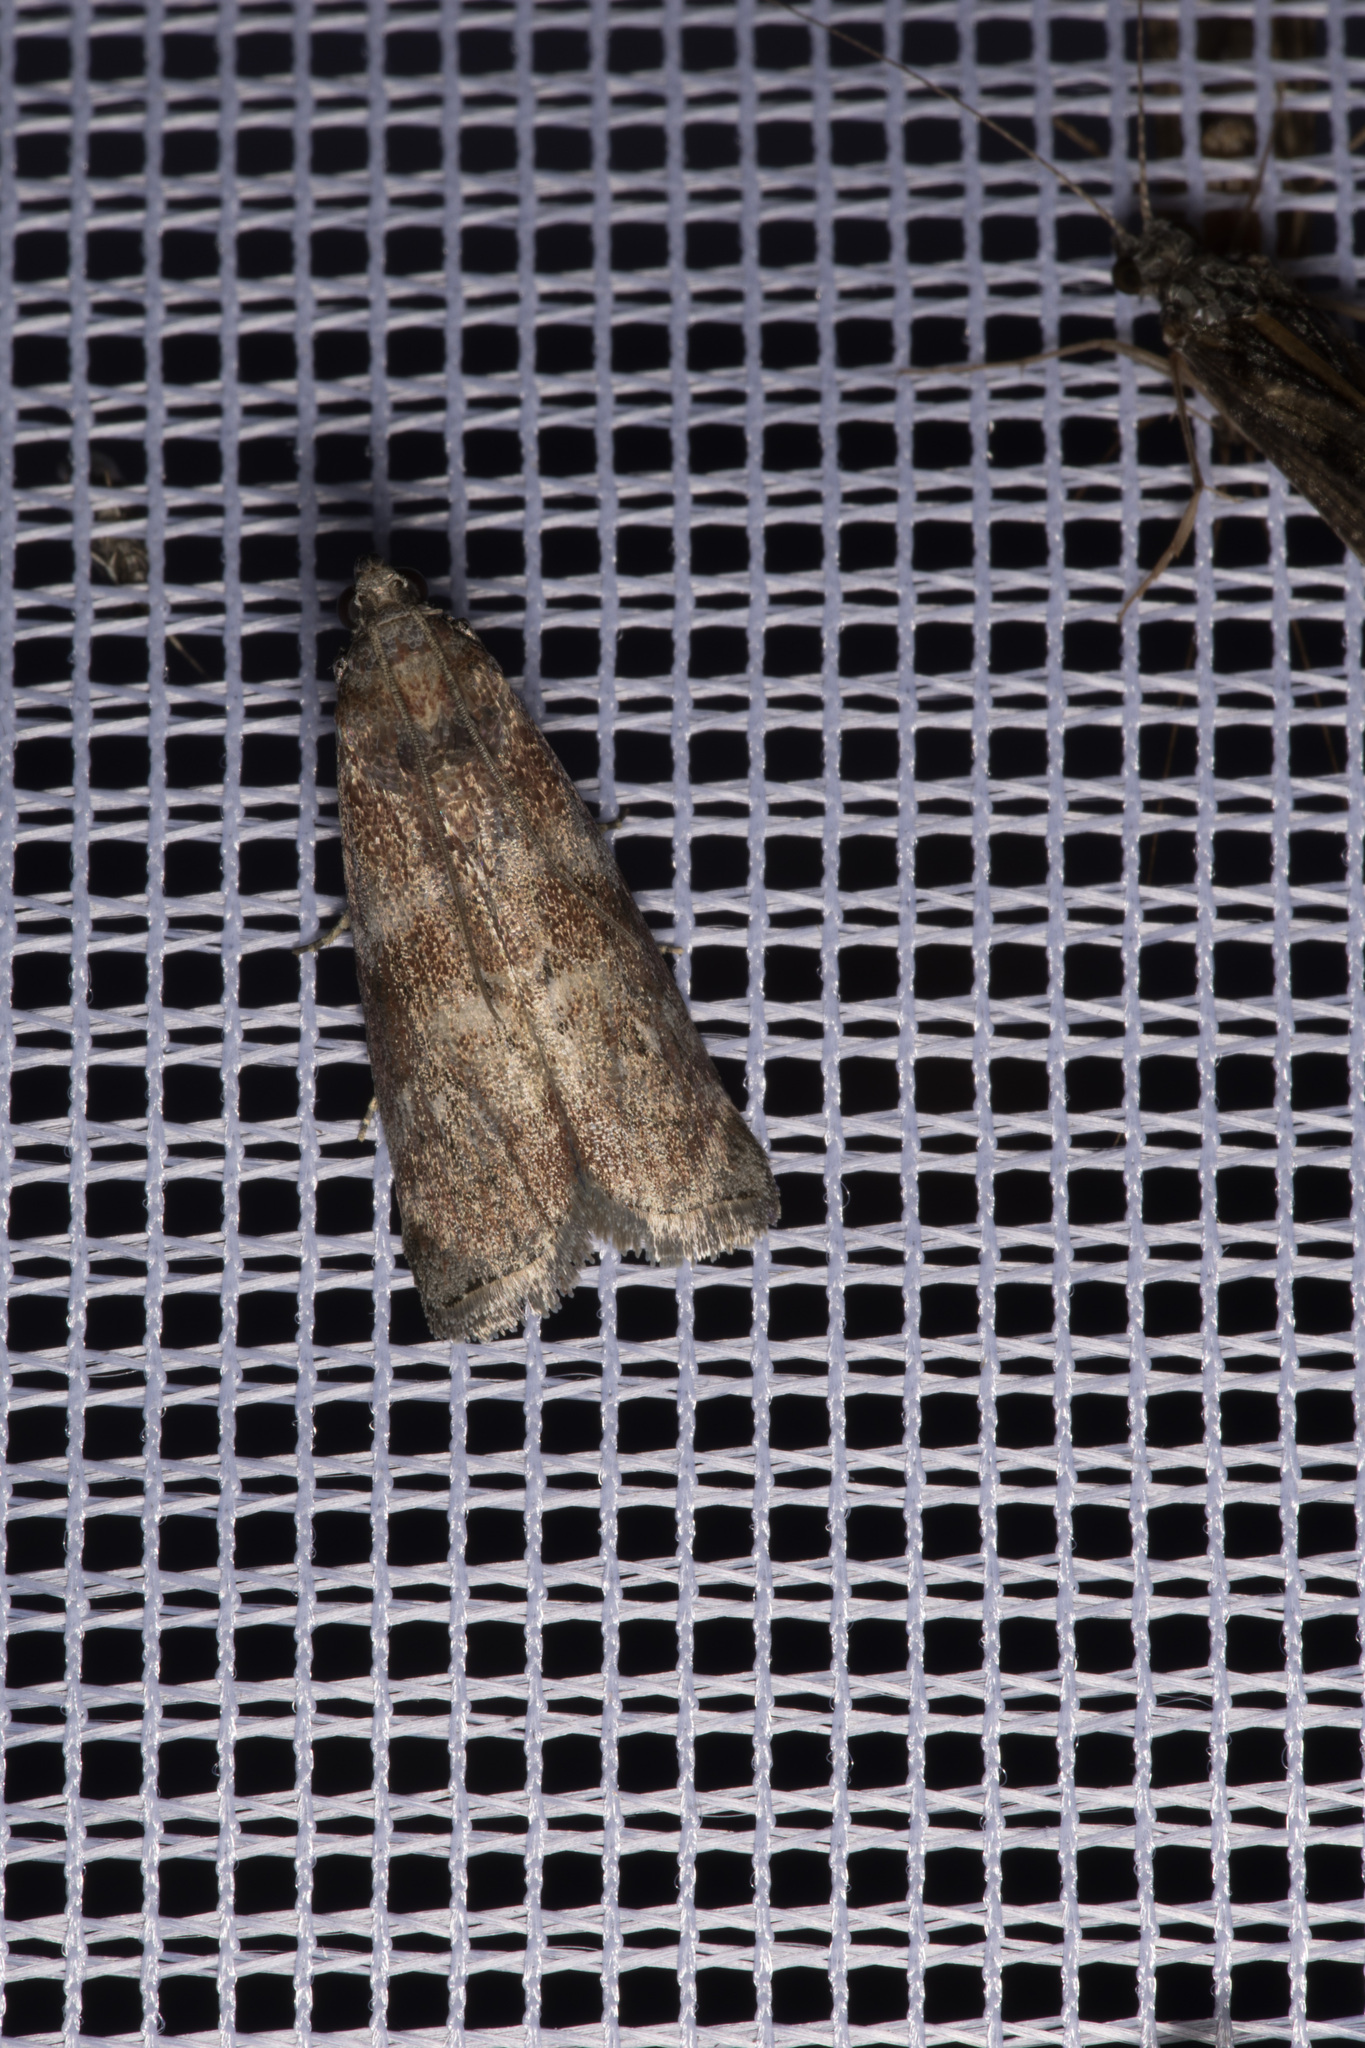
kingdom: Animalia
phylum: Arthropoda
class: Insecta
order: Lepidoptera
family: Pyralidae
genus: Phycita
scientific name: Phycita roborella
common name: Dotted oak knot-horn
